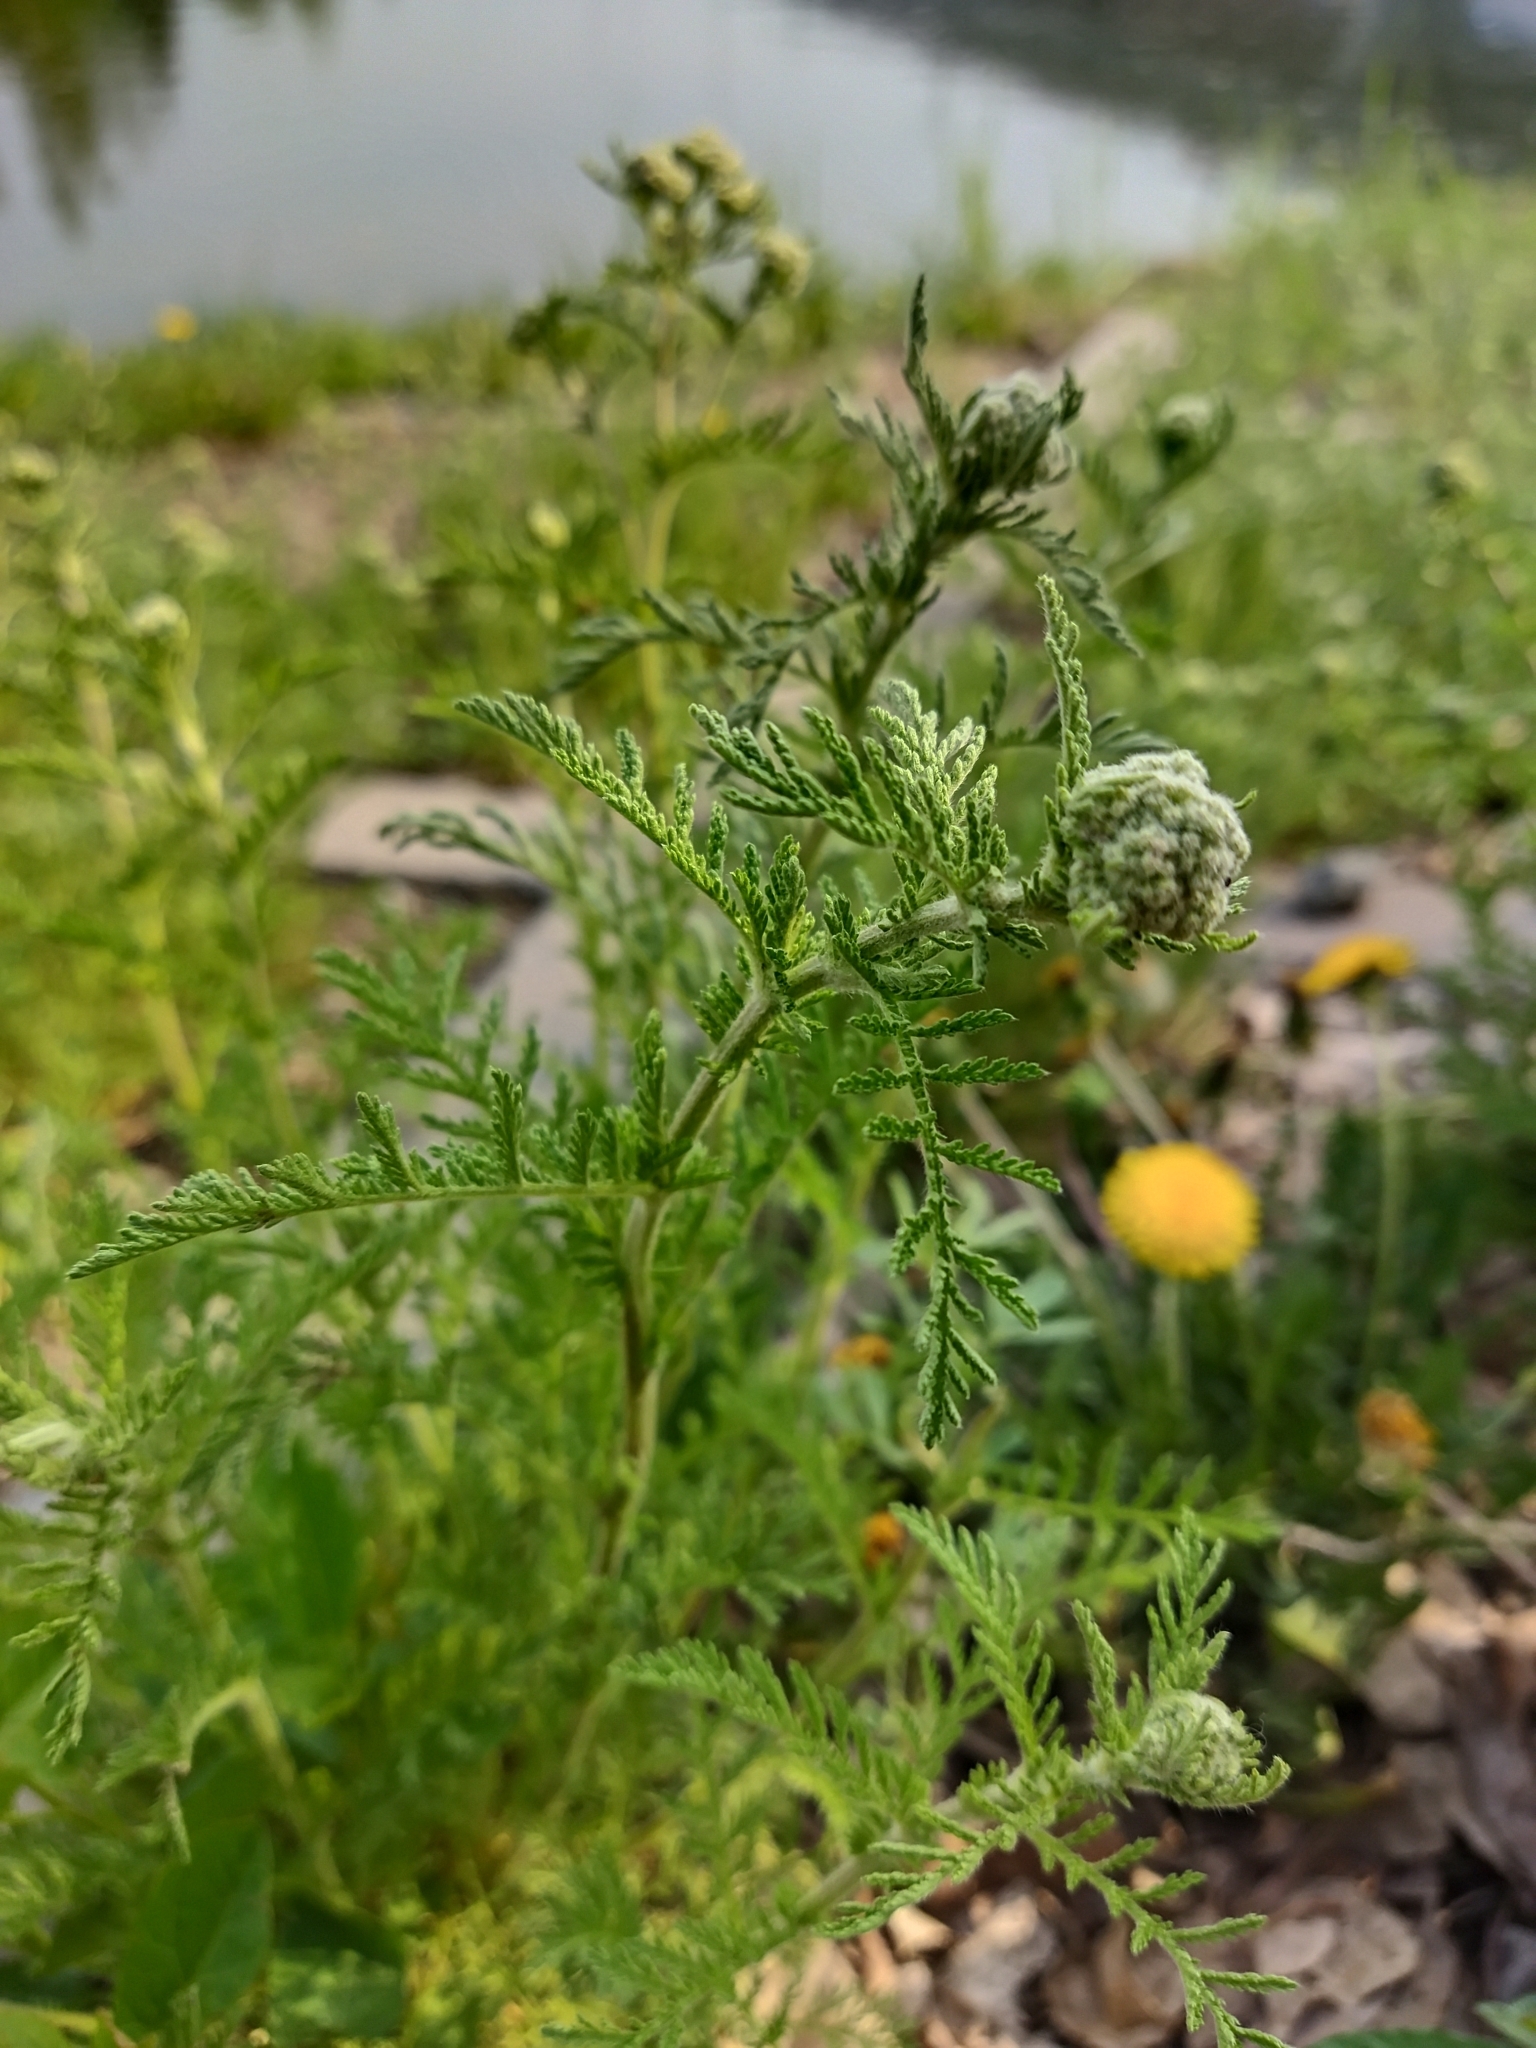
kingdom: Plantae
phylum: Tracheophyta
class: Magnoliopsida
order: Asterales
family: Asteraceae
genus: Achillea
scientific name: Achillea nobilis
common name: Noble yarrow
